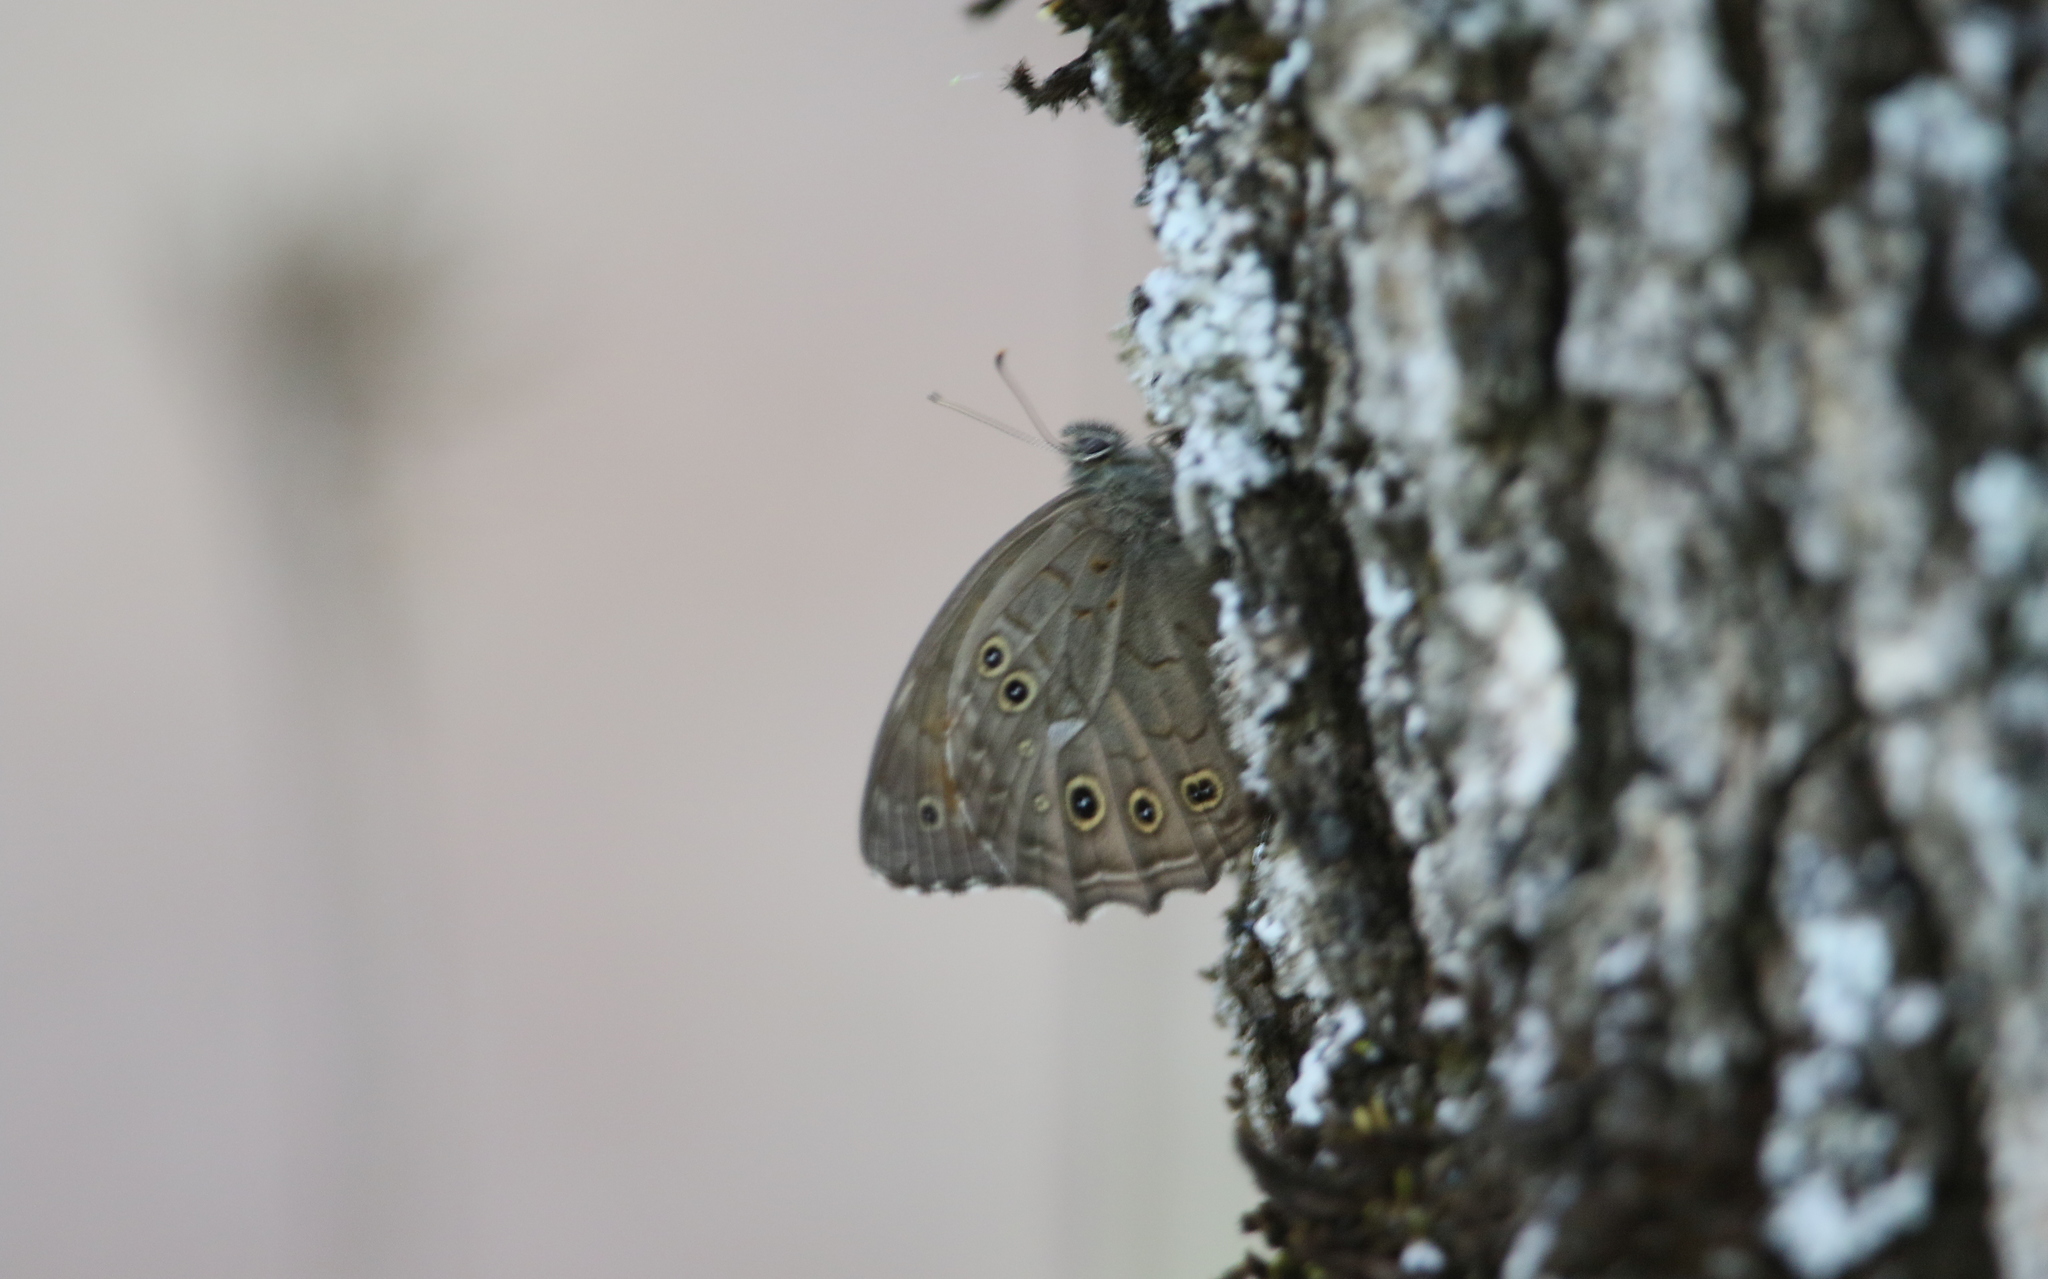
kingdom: Animalia
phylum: Arthropoda
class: Insecta
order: Lepidoptera
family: Nymphalidae
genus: Kirinia
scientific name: Kirinia roxelana
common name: Lattice brown
